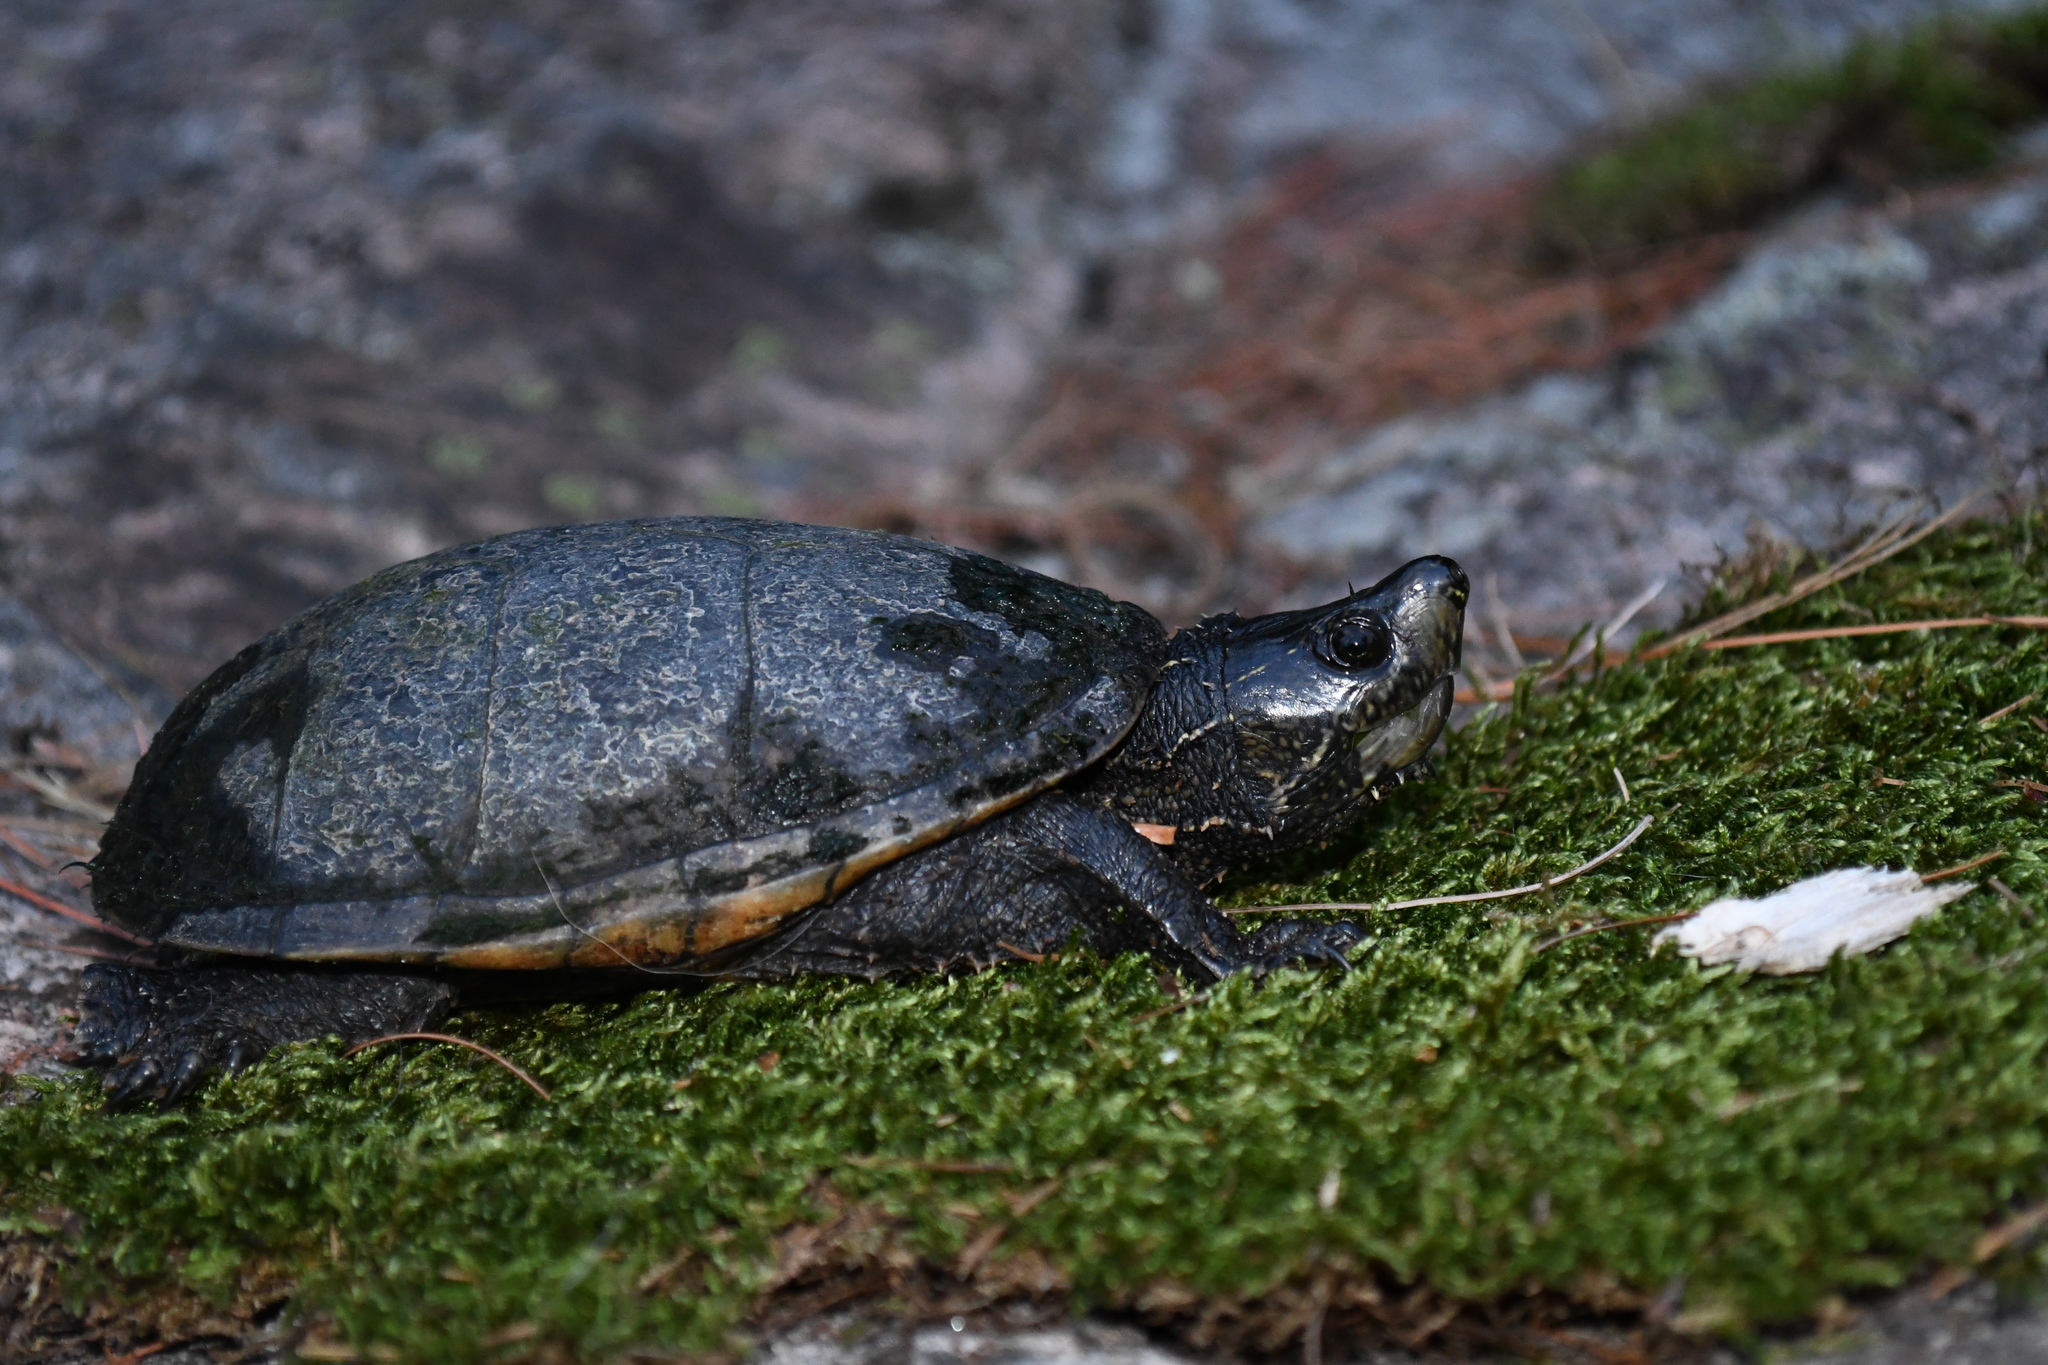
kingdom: Animalia
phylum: Chordata
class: Testudines
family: Kinosternidae
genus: Sternotherus
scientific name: Sternotherus odoratus
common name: Common musk turtle
